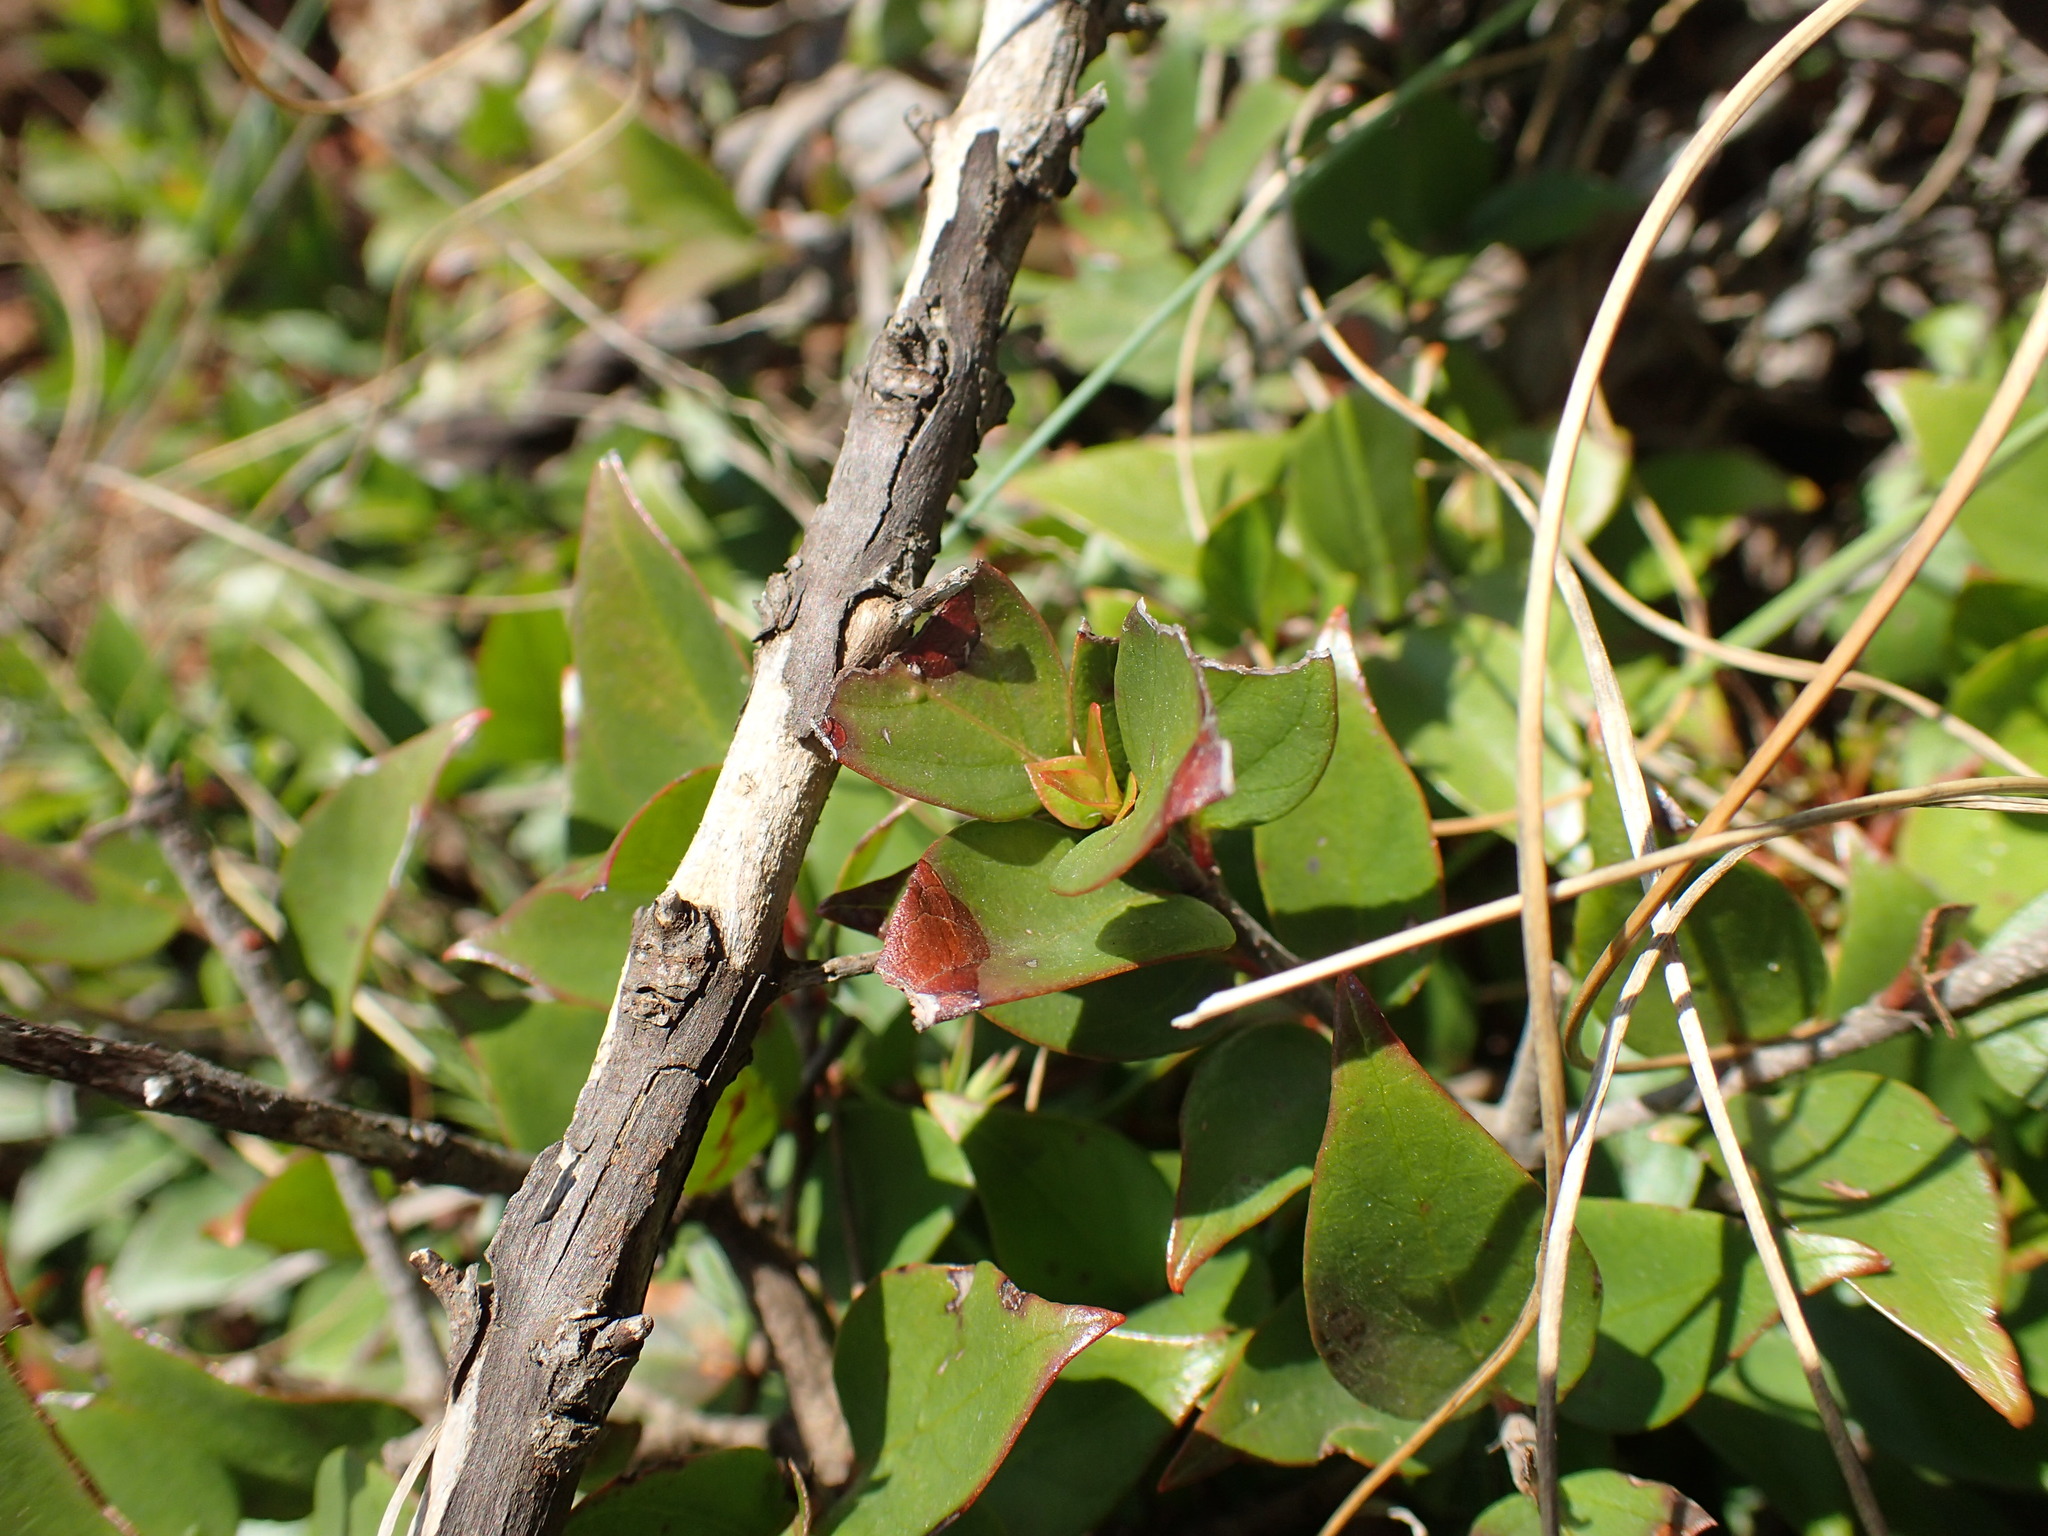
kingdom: Plantae
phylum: Tracheophyta
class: Magnoliopsida
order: Gentianales
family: Rubiaceae
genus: Cephalanthus
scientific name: Cephalanthus natalensis
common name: Strawberry bush
